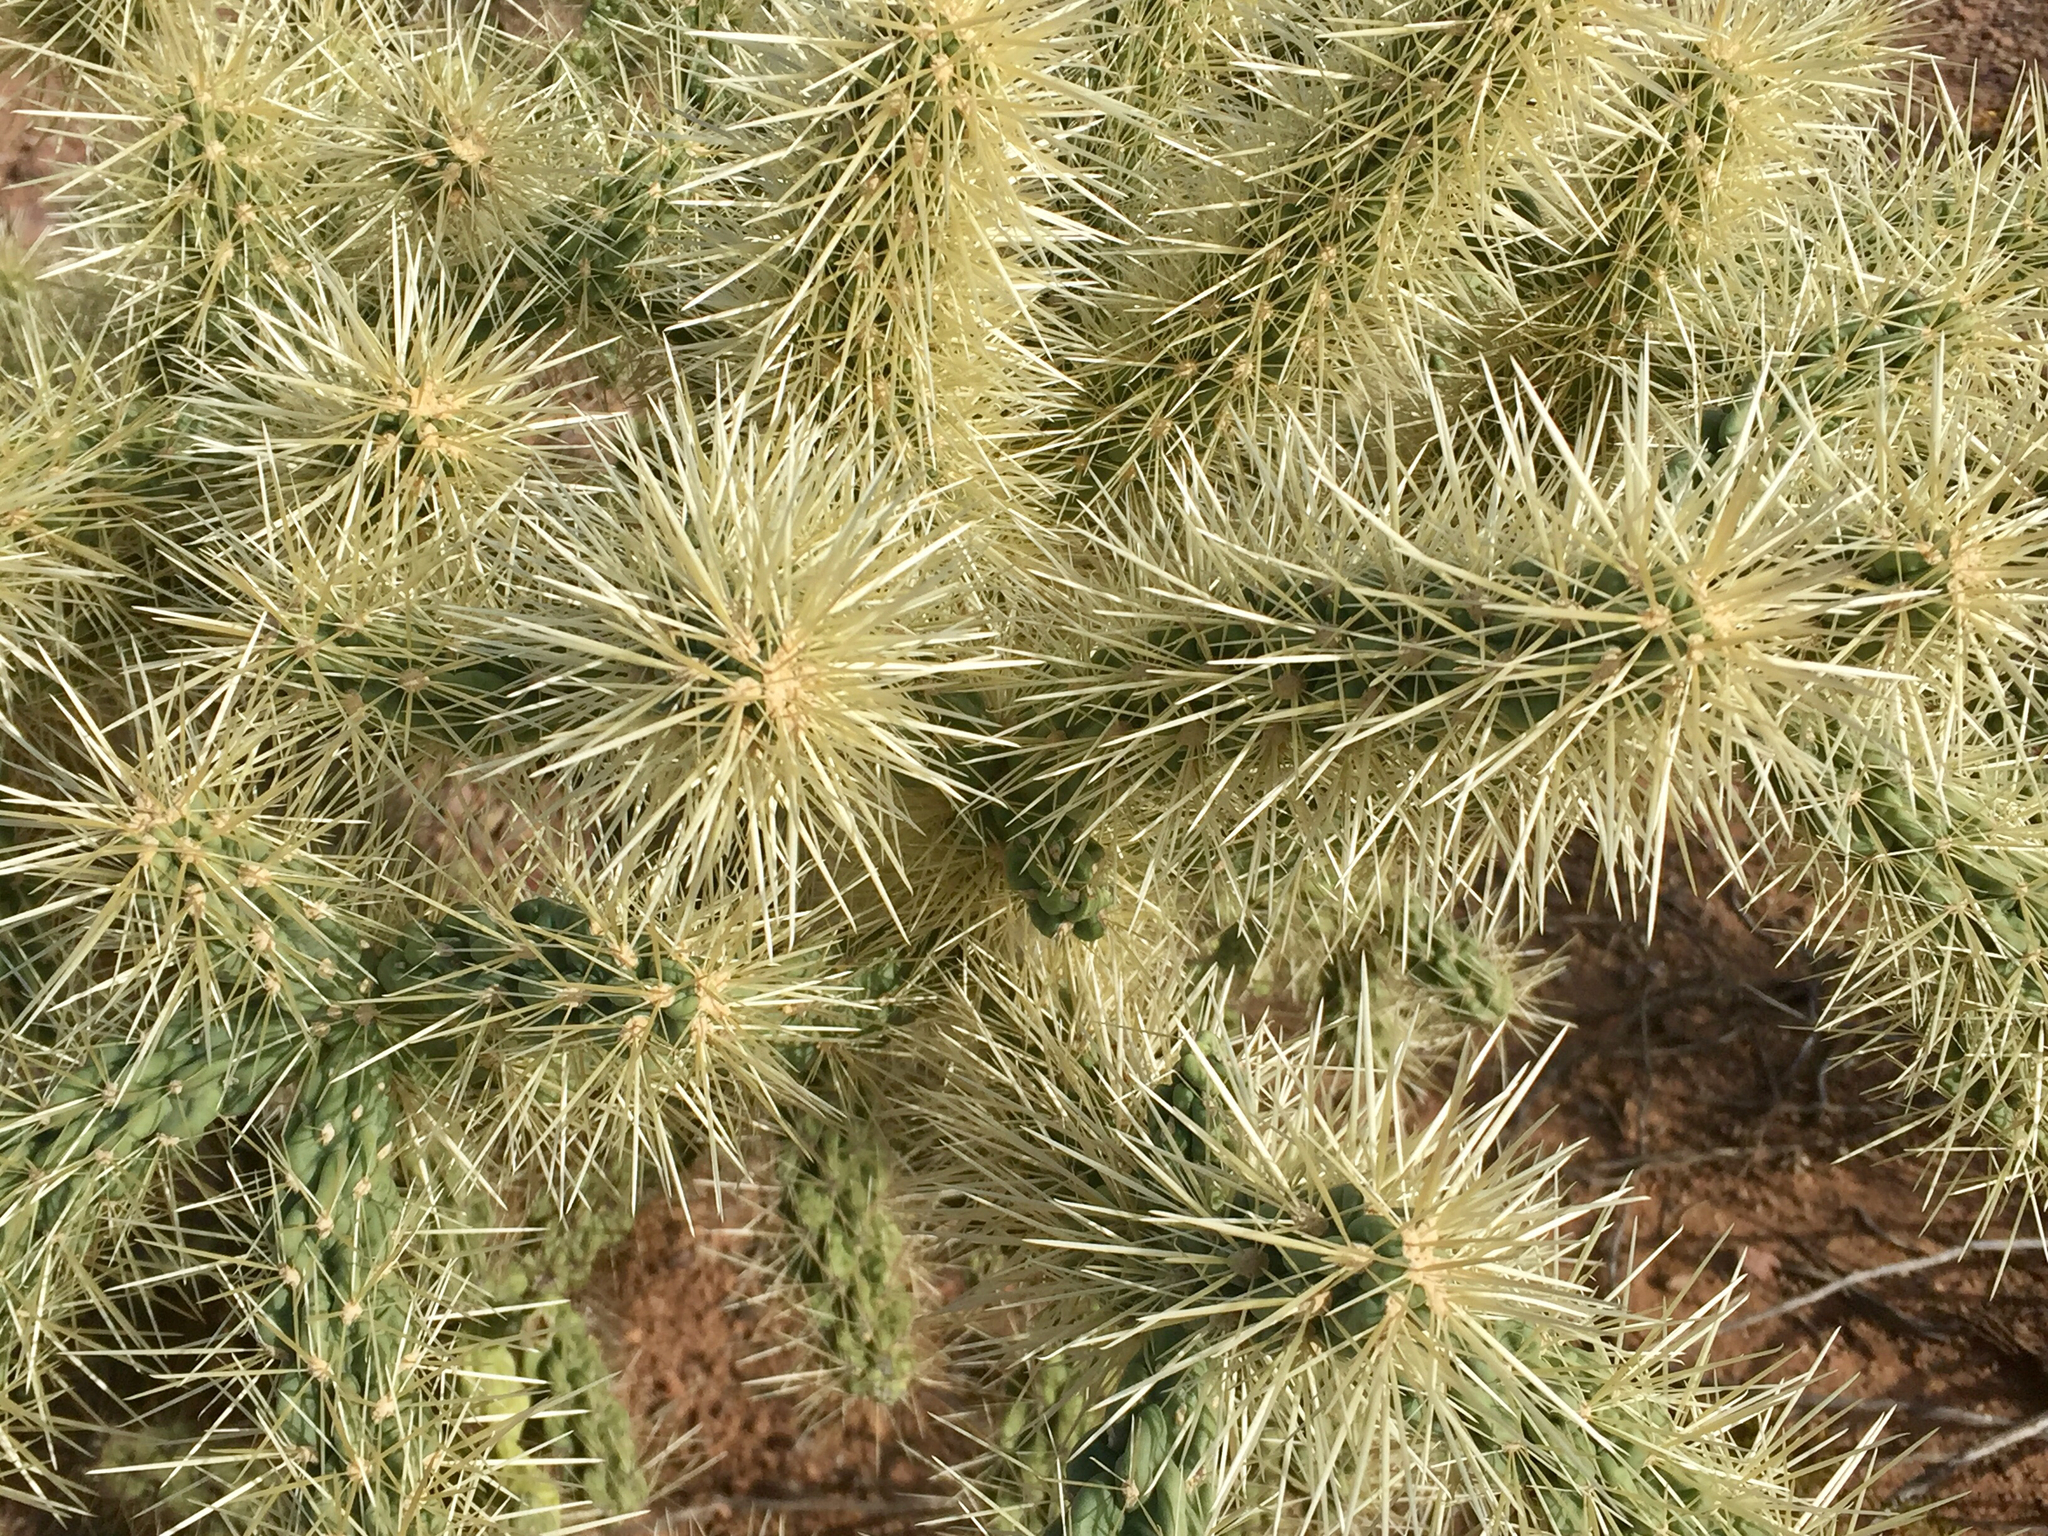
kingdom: Plantae
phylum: Tracheophyta
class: Magnoliopsida
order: Caryophyllales
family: Cactaceae
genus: Cylindropuntia
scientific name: Cylindropuntia fulgida
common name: Jumping cholla
